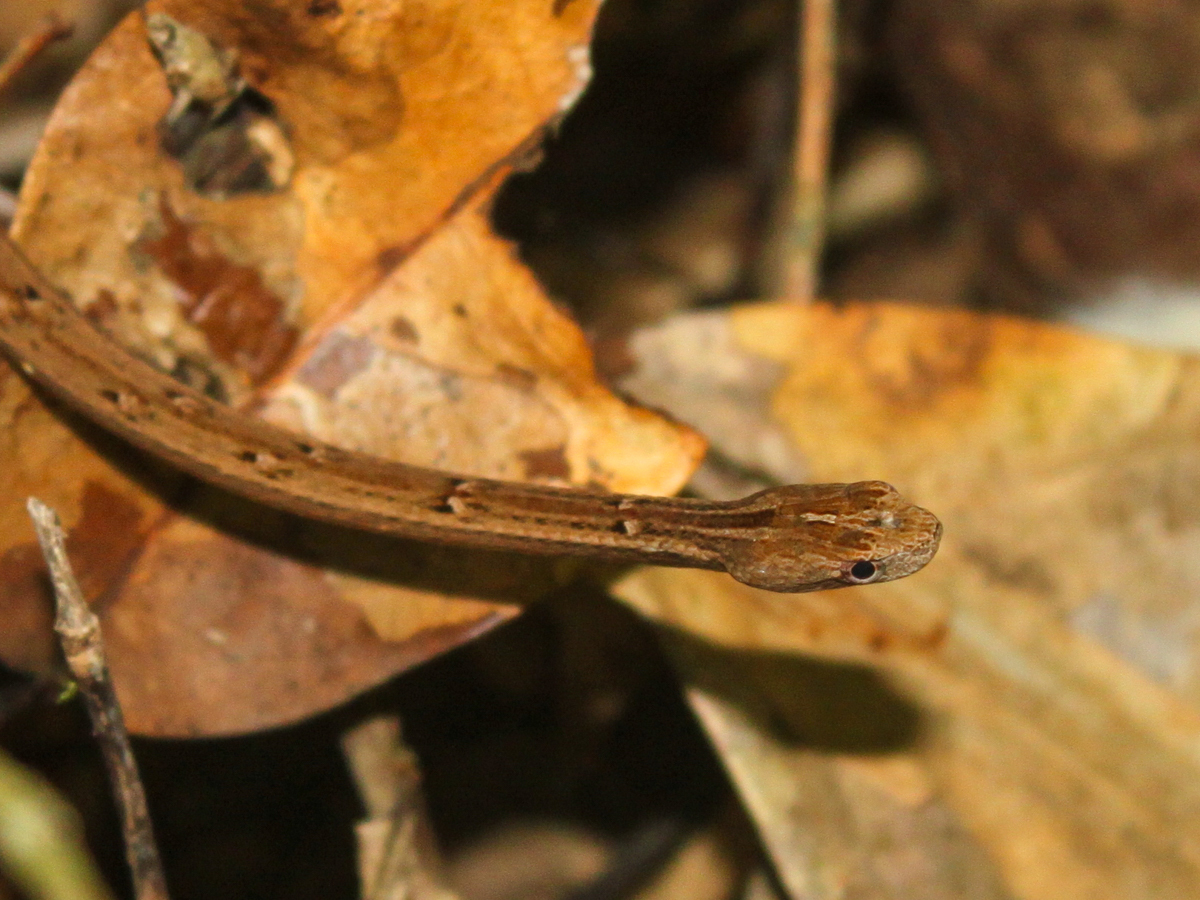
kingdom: Animalia
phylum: Chordata
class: Squamata
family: Pseudaspididae
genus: Psammodynastes
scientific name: Psammodynastes pulverulentus
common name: Common mock viper
